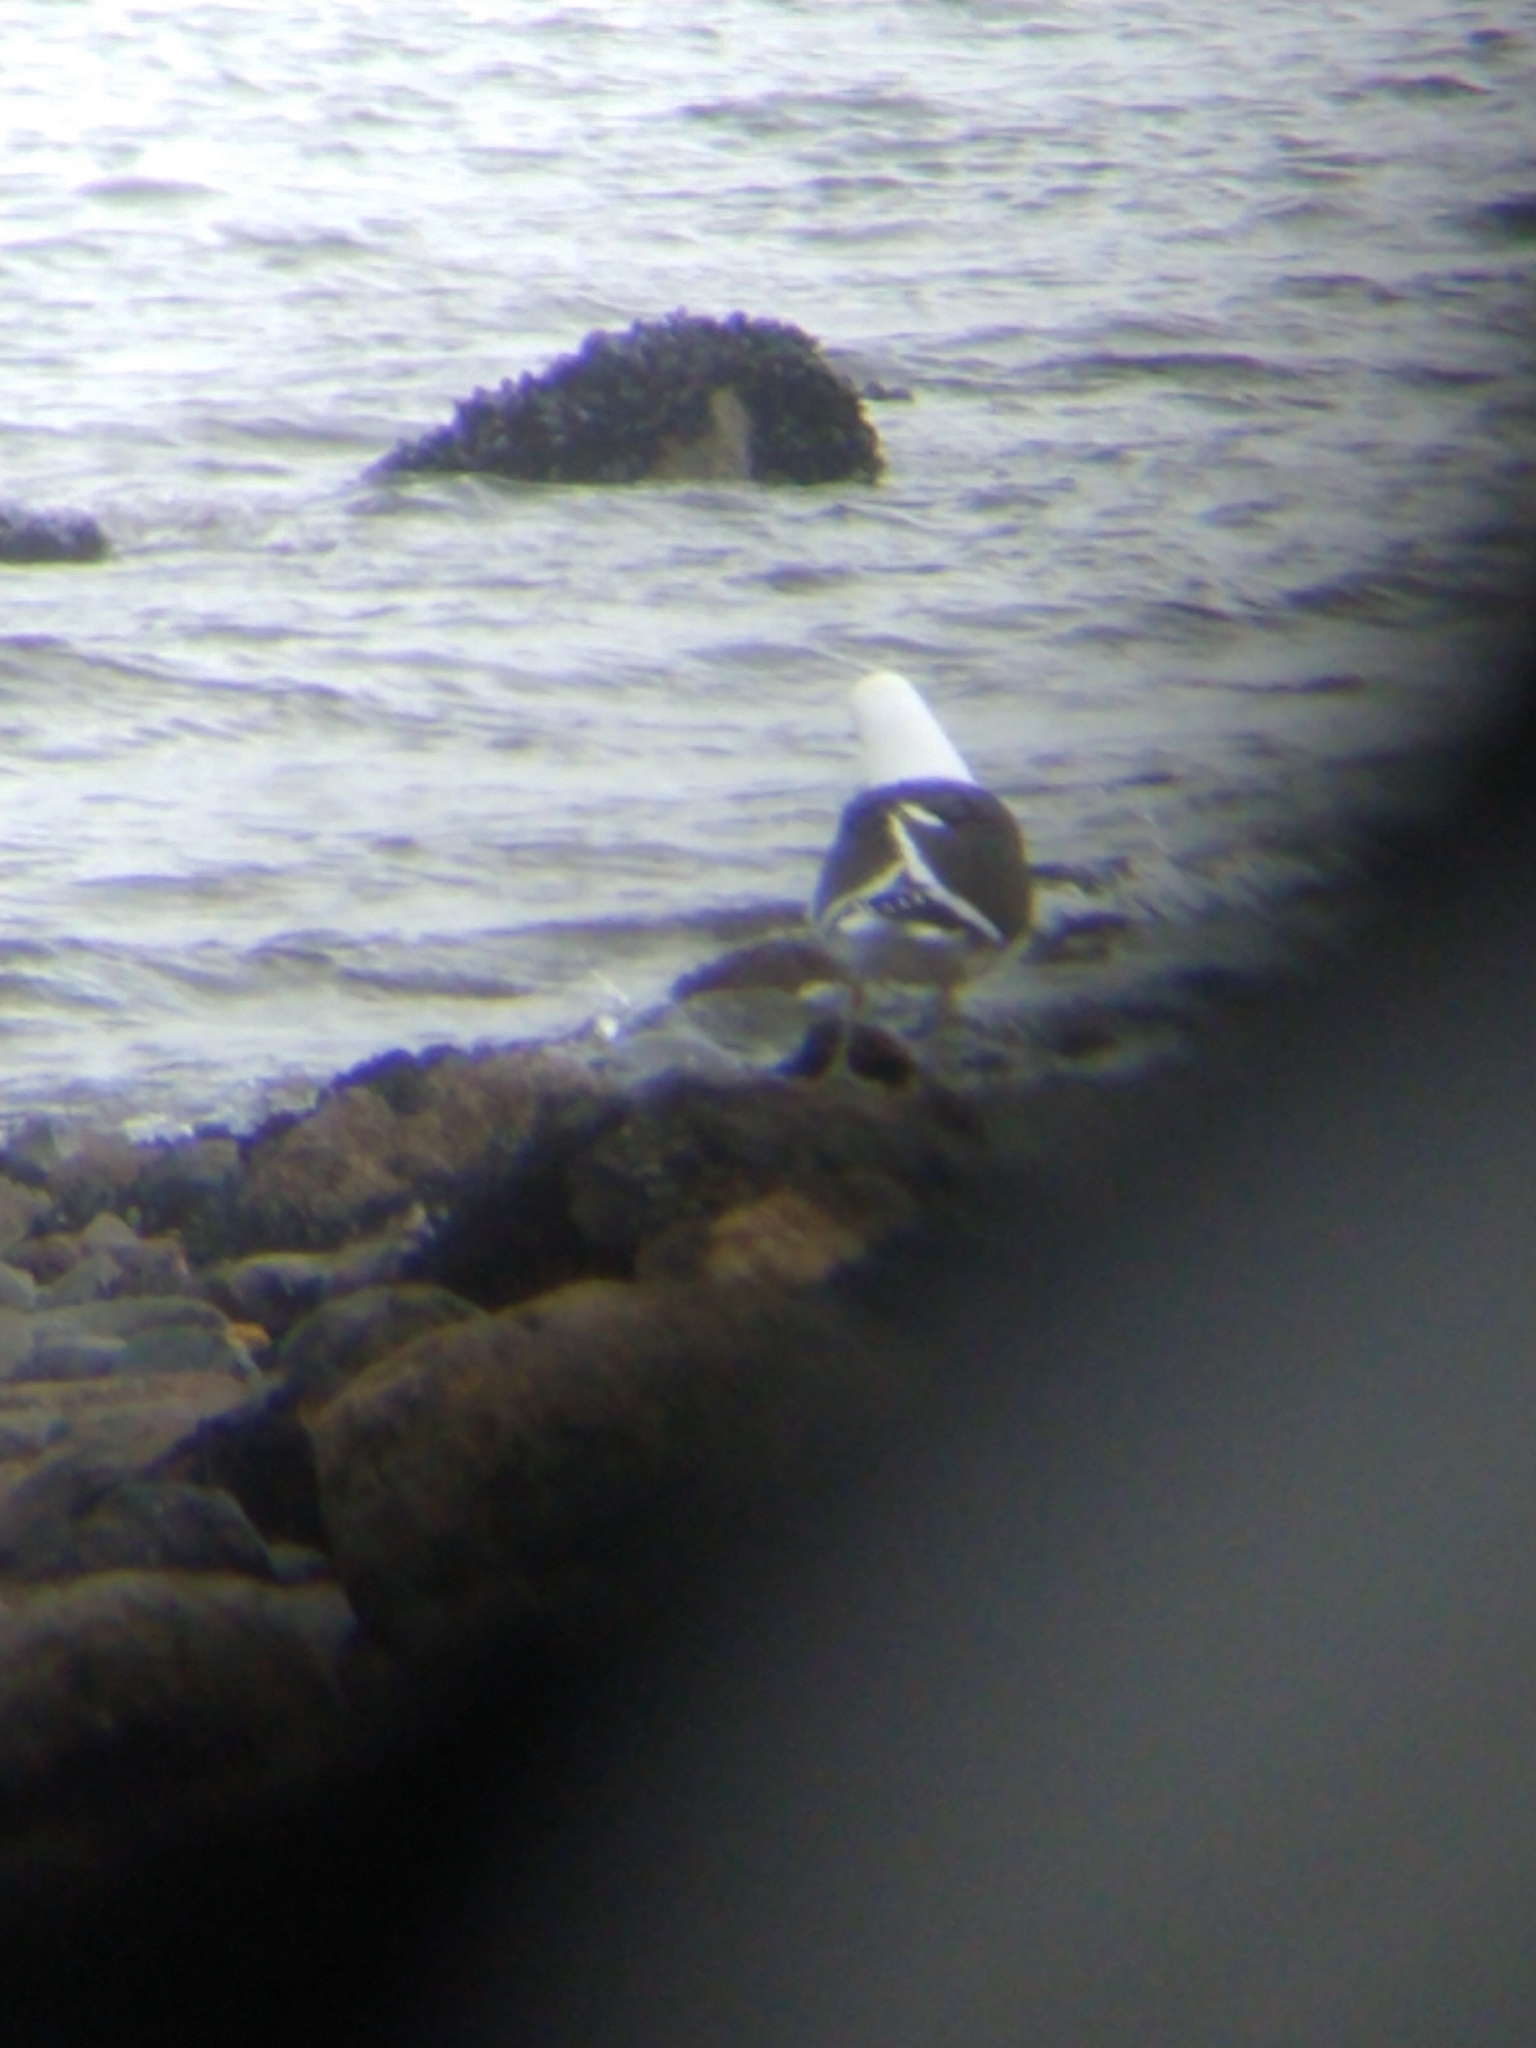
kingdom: Animalia
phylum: Chordata
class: Aves
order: Charadriiformes
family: Laridae
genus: Larus
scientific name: Larus dominicanus
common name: Kelp gull
